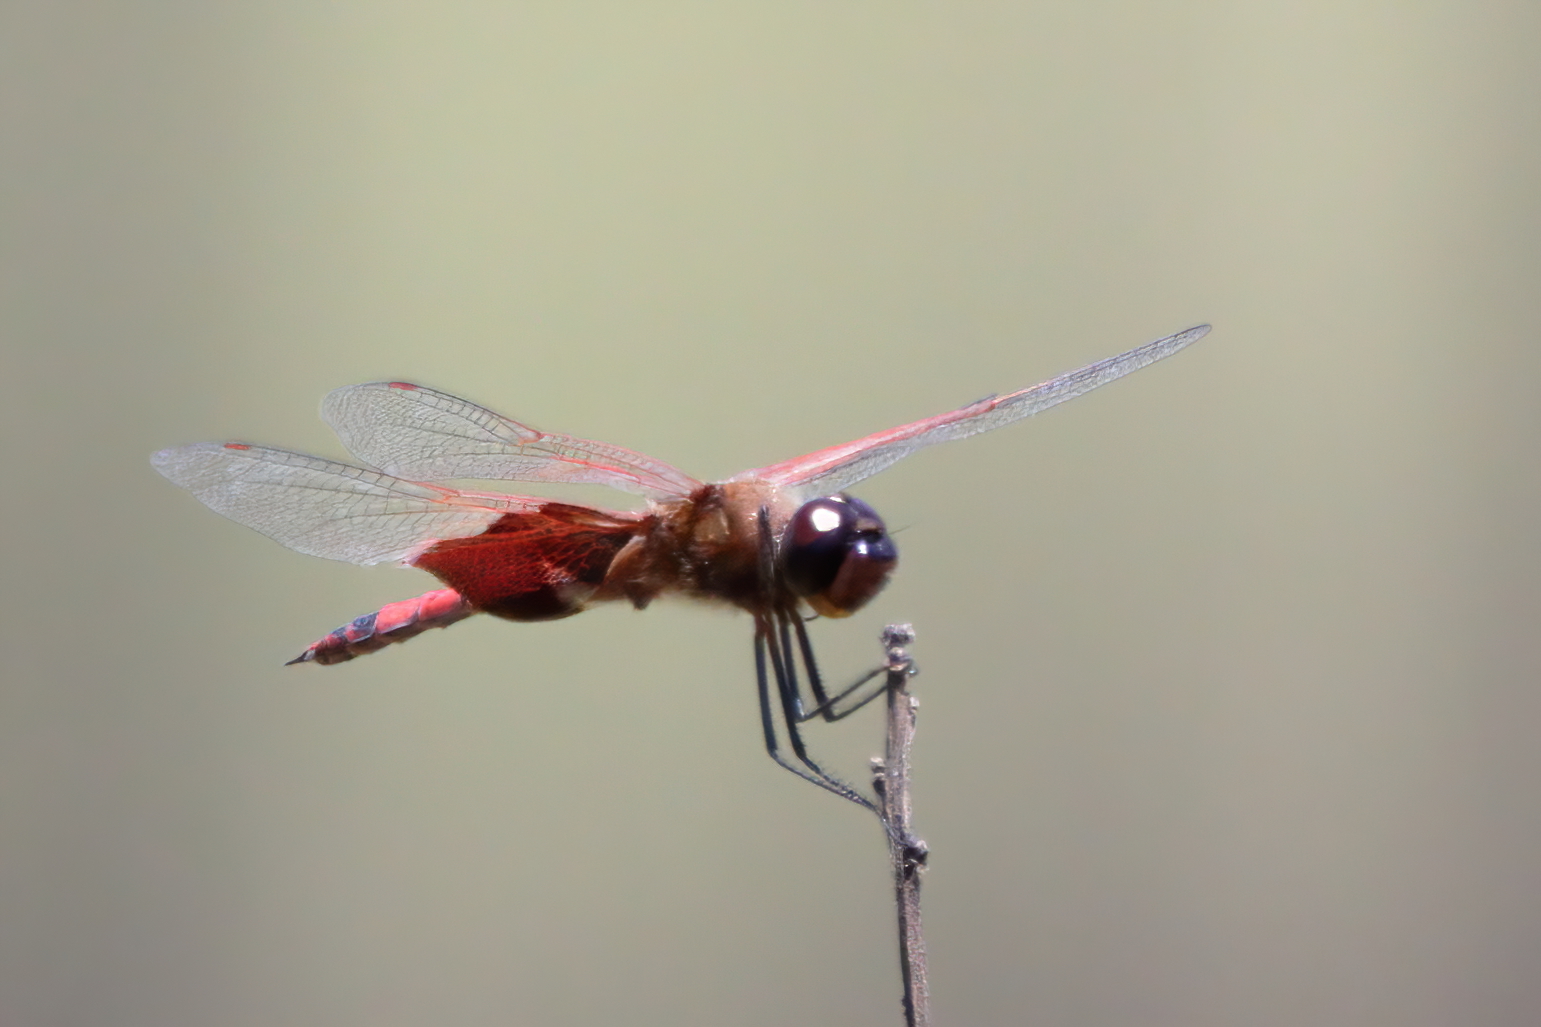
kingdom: Animalia
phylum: Arthropoda
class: Insecta
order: Odonata
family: Libellulidae
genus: Tramea
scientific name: Tramea carolina
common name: Carolina saddlebags
